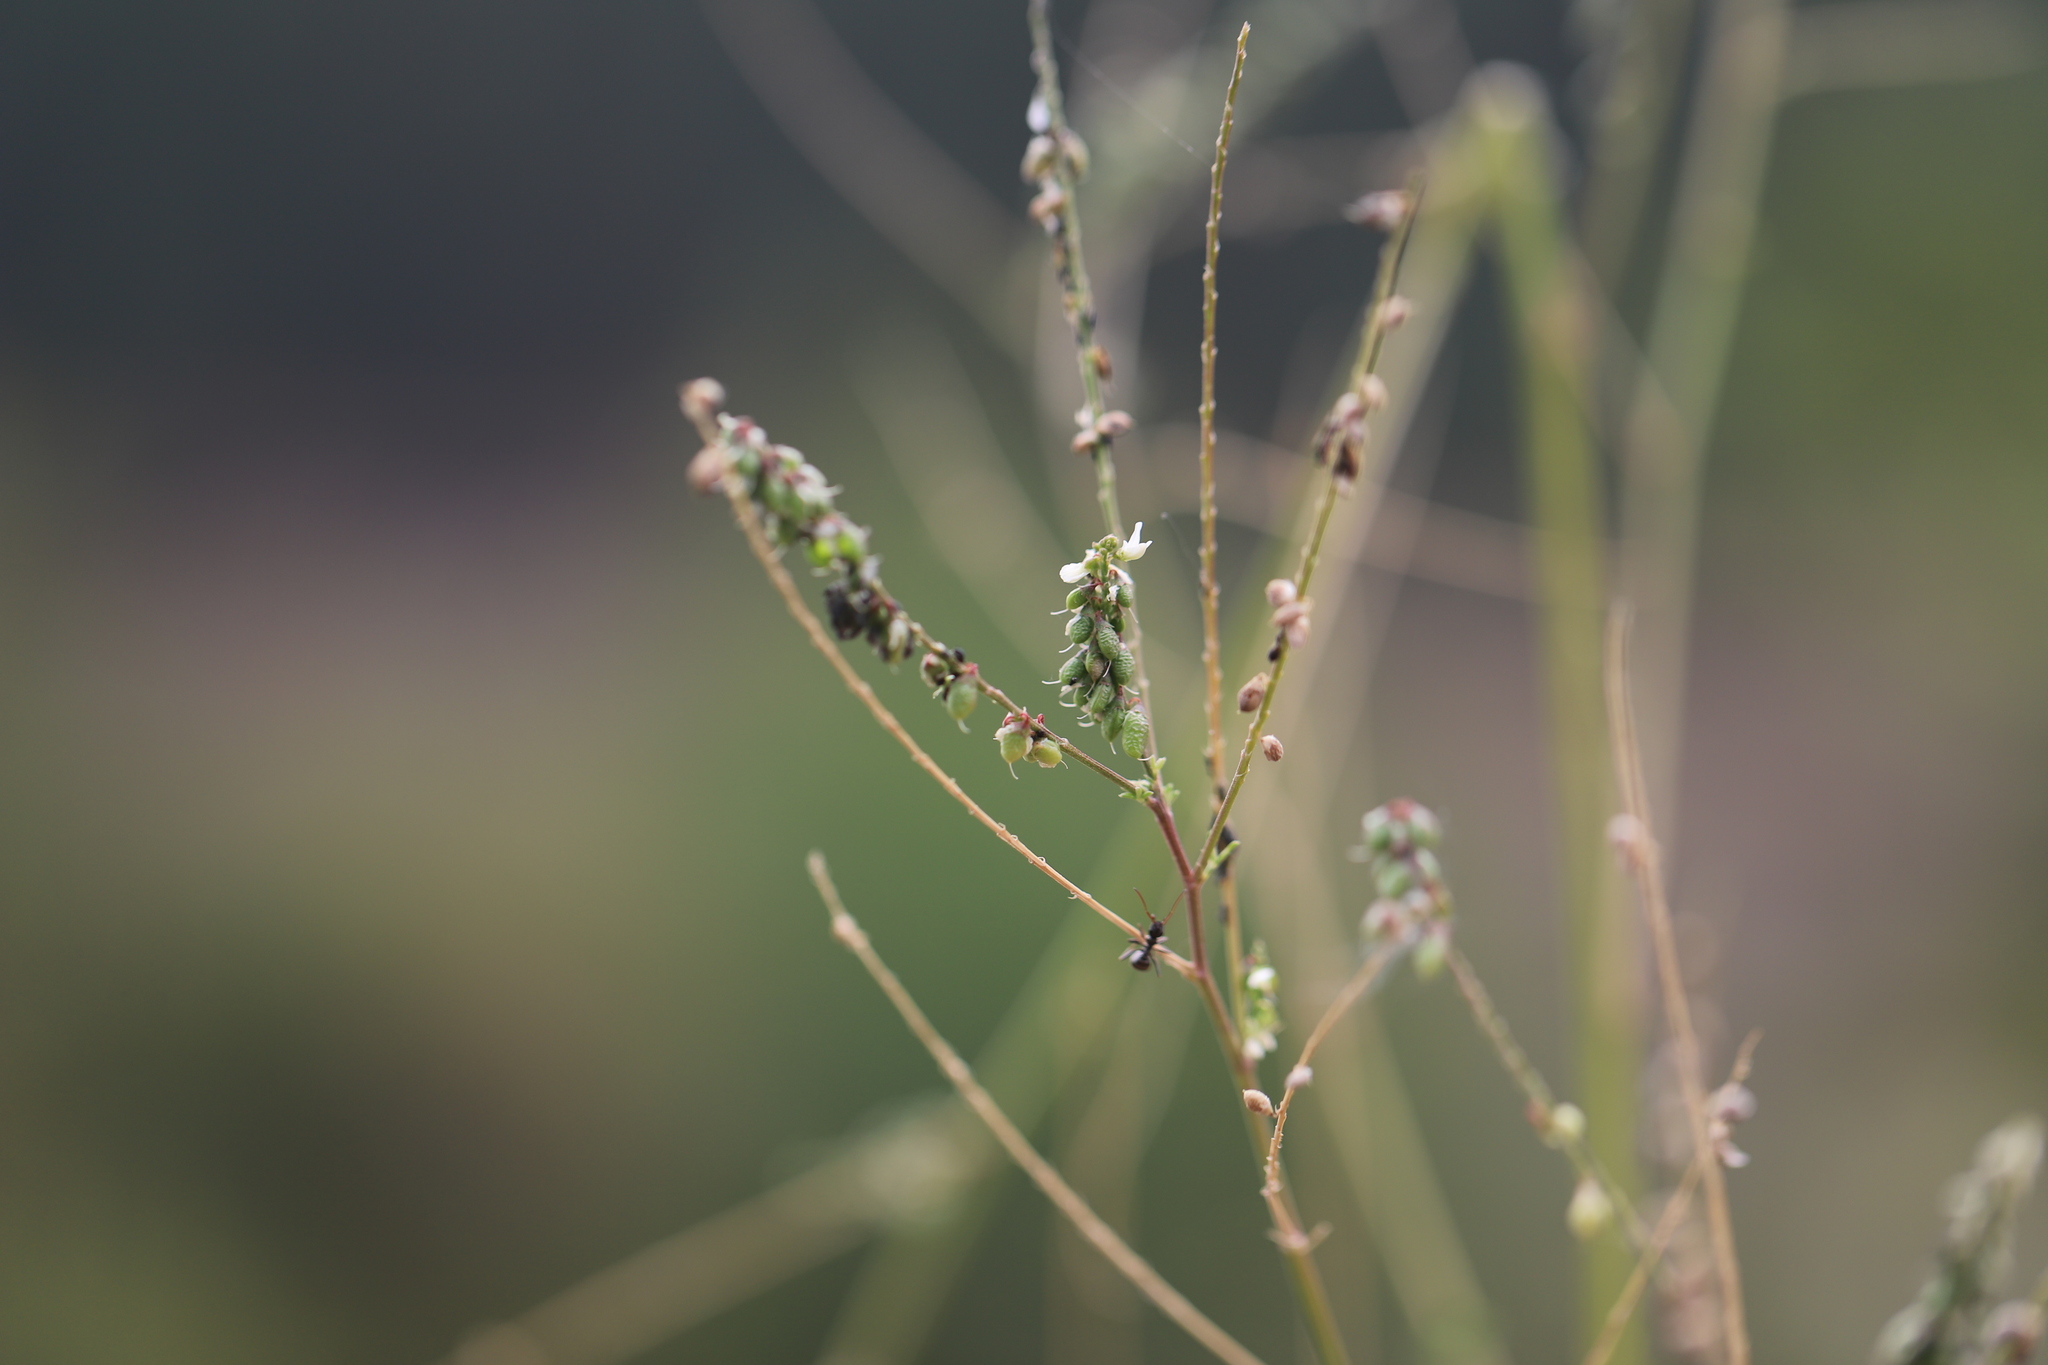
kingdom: Plantae
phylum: Tracheophyta
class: Magnoliopsida
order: Fabales
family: Fabaceae
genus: Melilotus
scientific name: Melilotus albus
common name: White melilot
